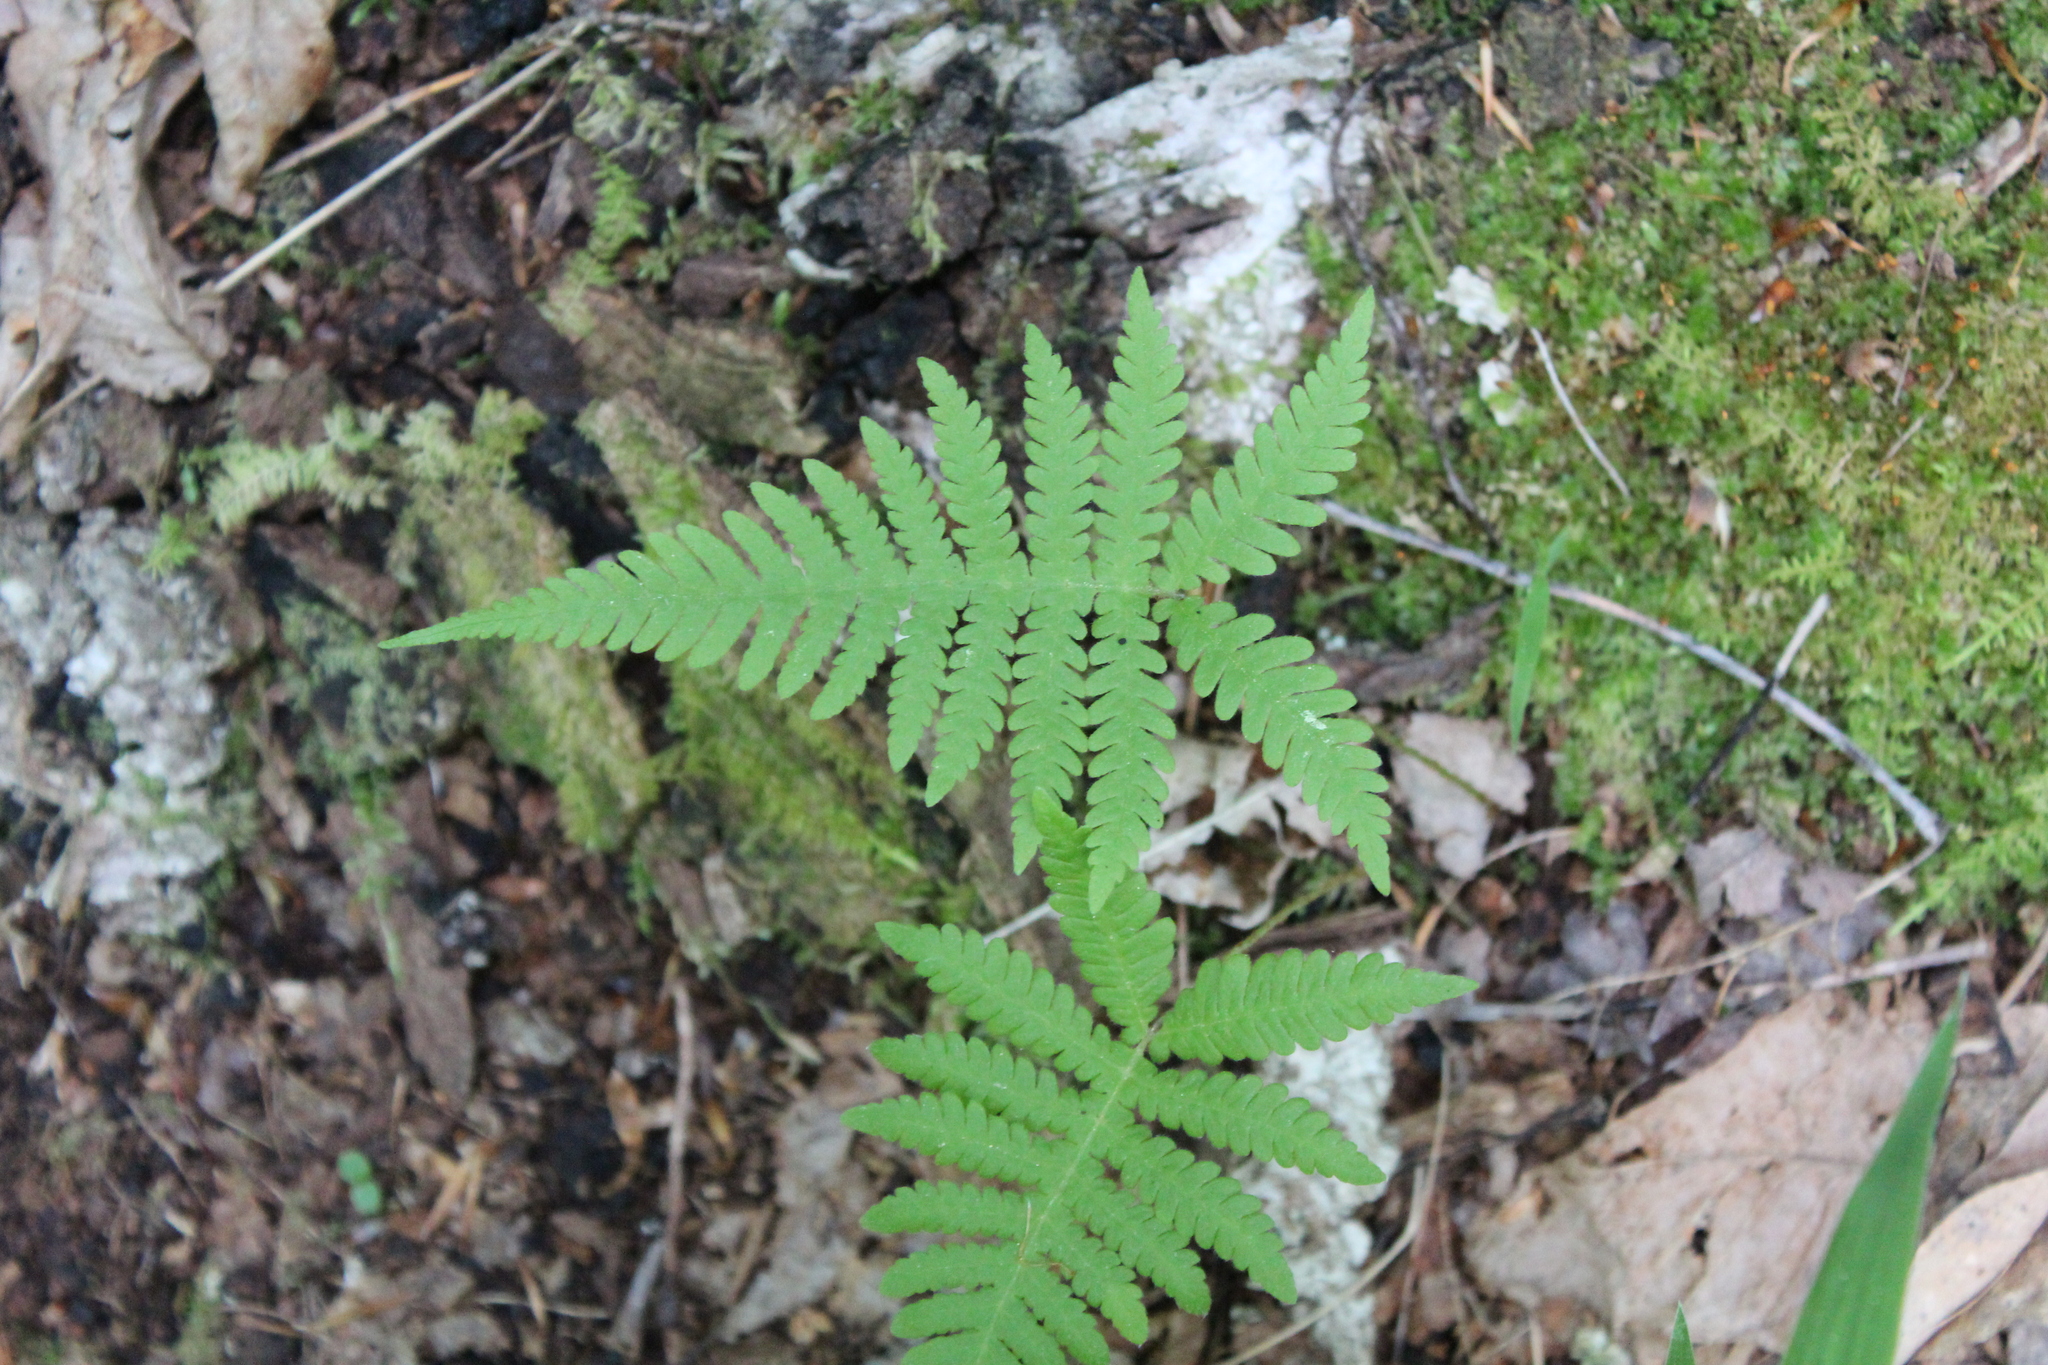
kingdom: Plantae
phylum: Tracheophyta
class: Polypodiopsida
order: Polypodiales
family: Thelypteridaceae
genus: Phegopteris
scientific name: Phegopteris connectilis
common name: Beech fern
